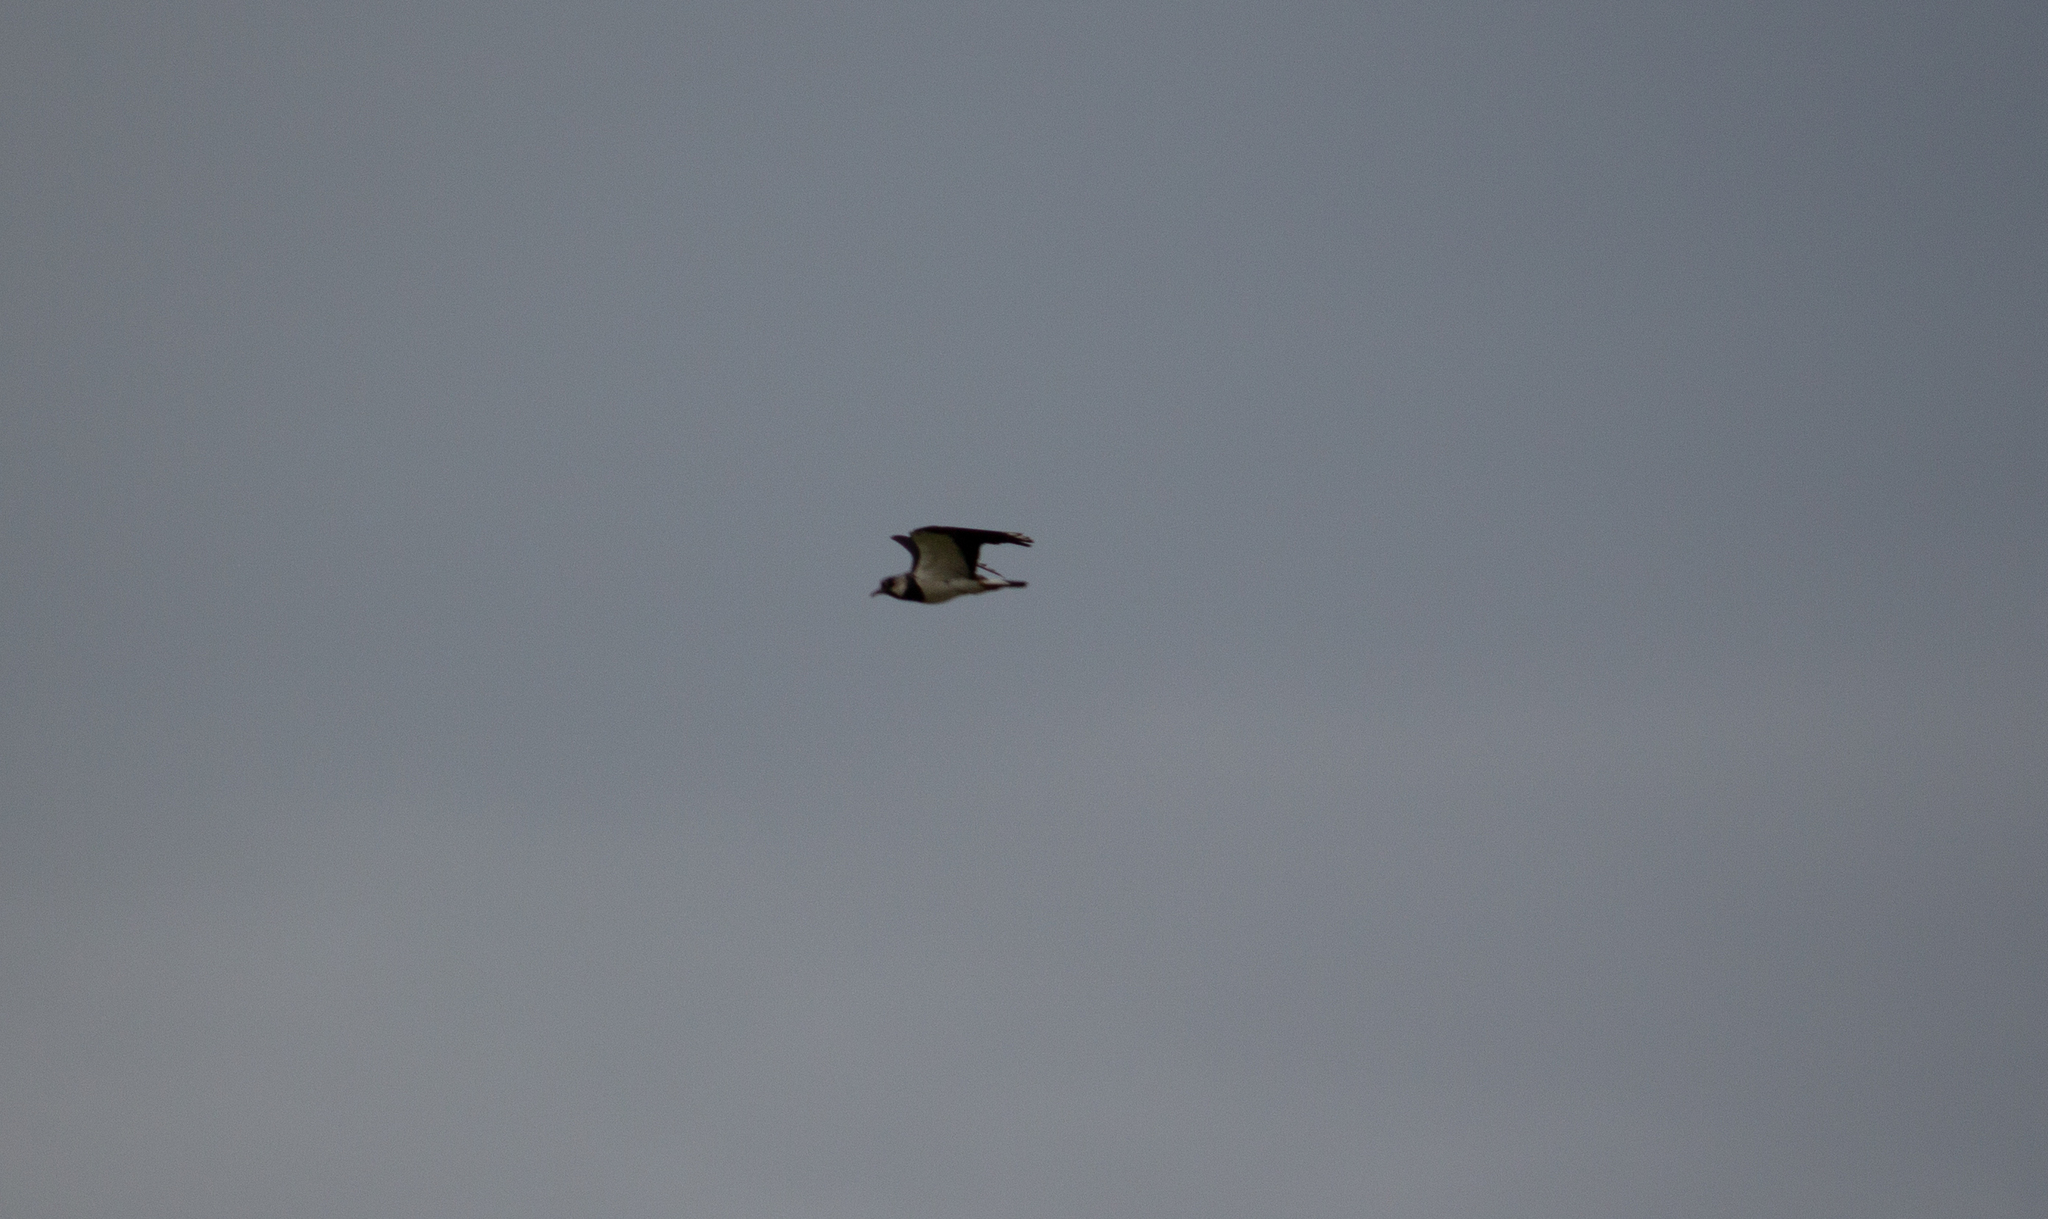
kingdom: Animalia
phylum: Chordata
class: Aves
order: Charadriiformes
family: Charadriidae
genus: Vanellus
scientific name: Vanellus vanellus
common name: Northern lapwing
